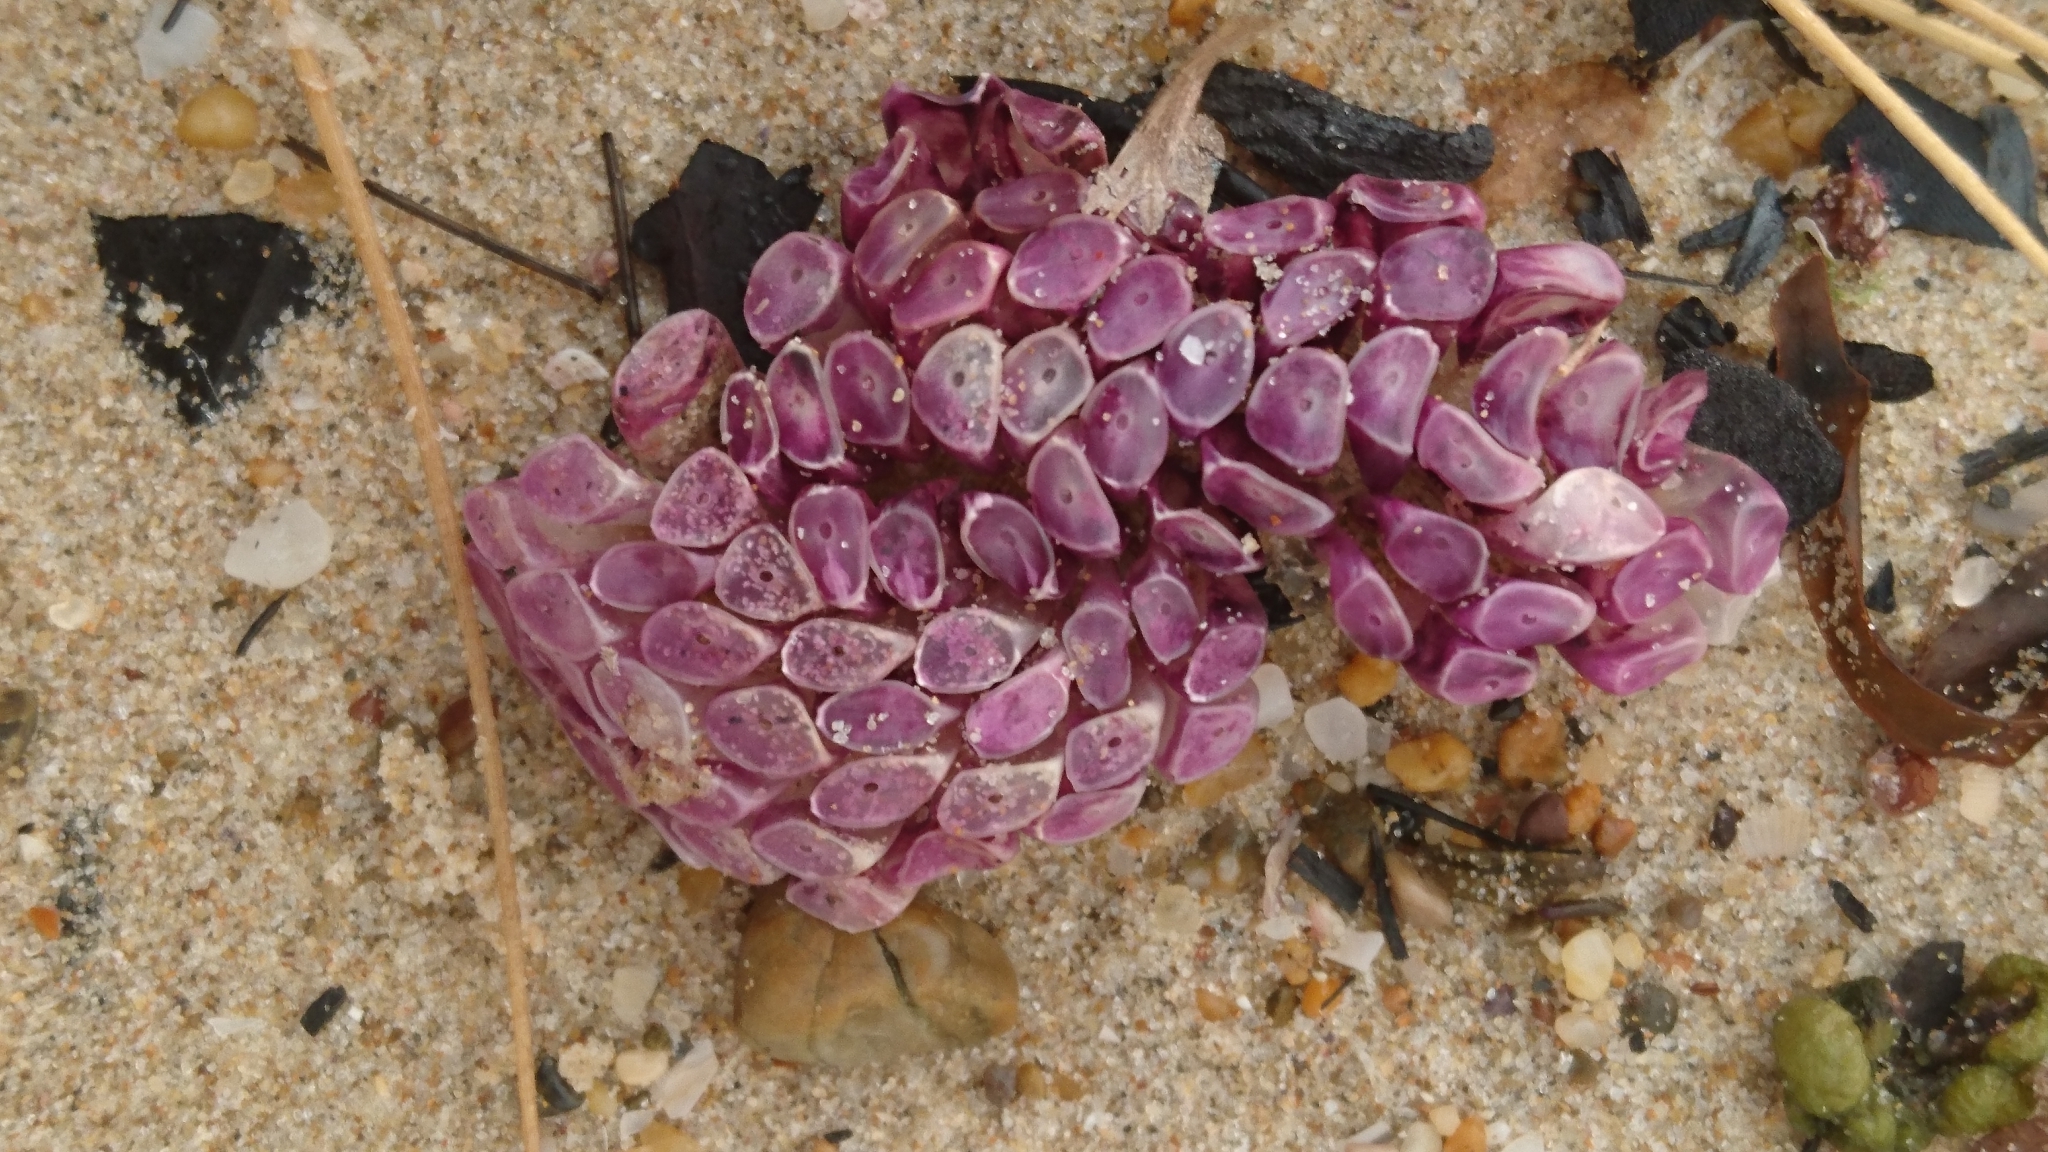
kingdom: Animalia
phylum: Mollusca
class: Gastropoda
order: Neogastropoda
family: Muricidae
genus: Dicathais
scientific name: Dicathais orbita
